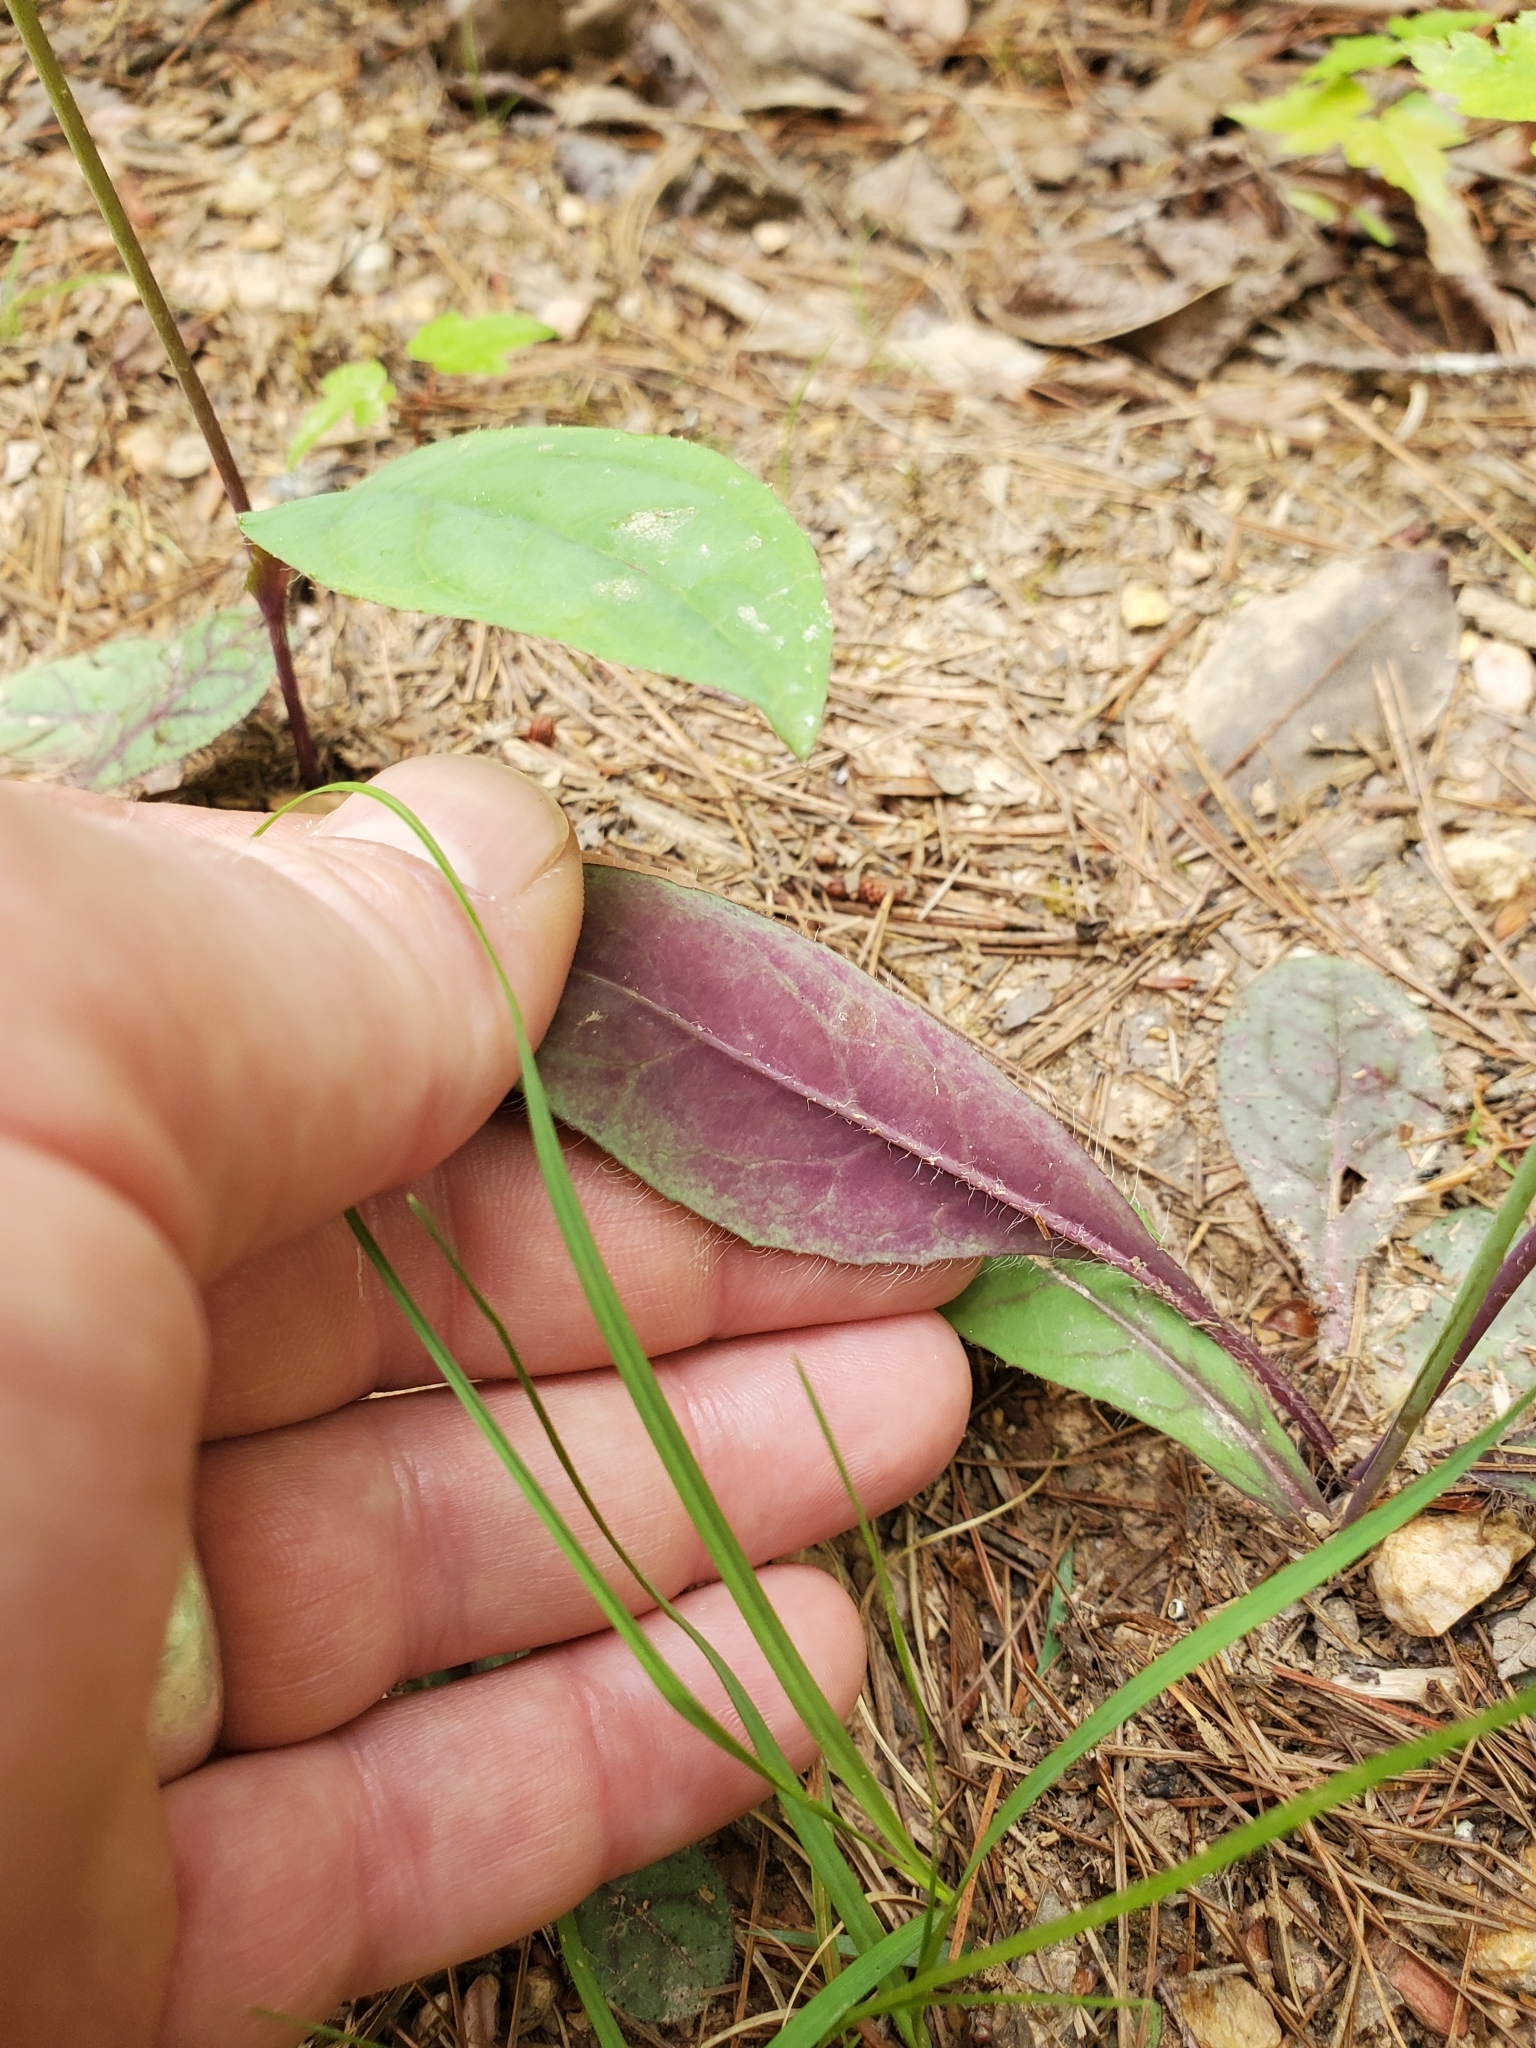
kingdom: Plantae
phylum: Tracheophyta
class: Magnoliopsida
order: Asterales
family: Asteraceae
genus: Hieracium
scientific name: Hieracium venosum
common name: Rattlesnake hawkweed
